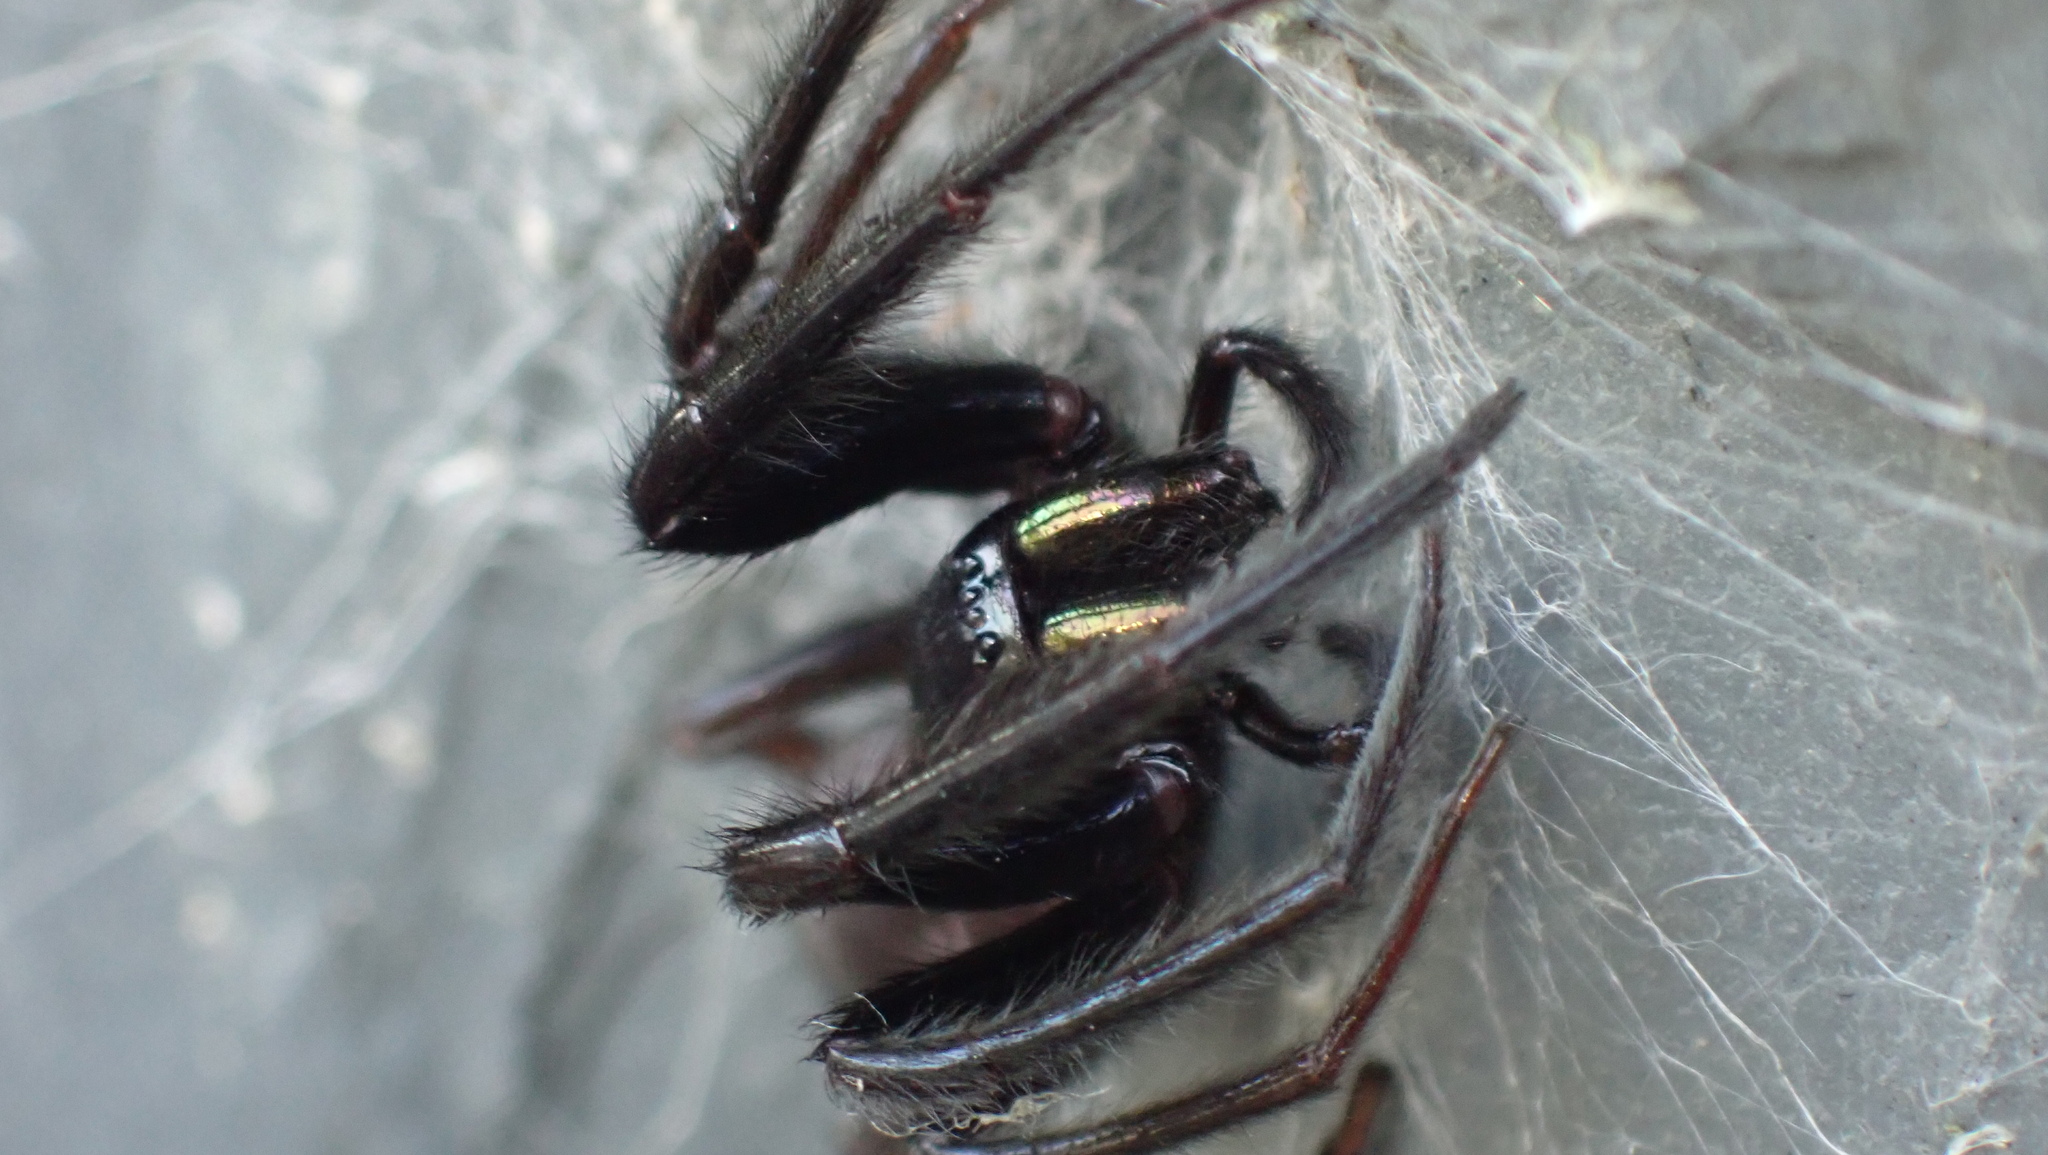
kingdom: Animalia
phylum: Arthropoda
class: Arachnida
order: Araneae
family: Segestriidae
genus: Segestria
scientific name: Segestria florentina
